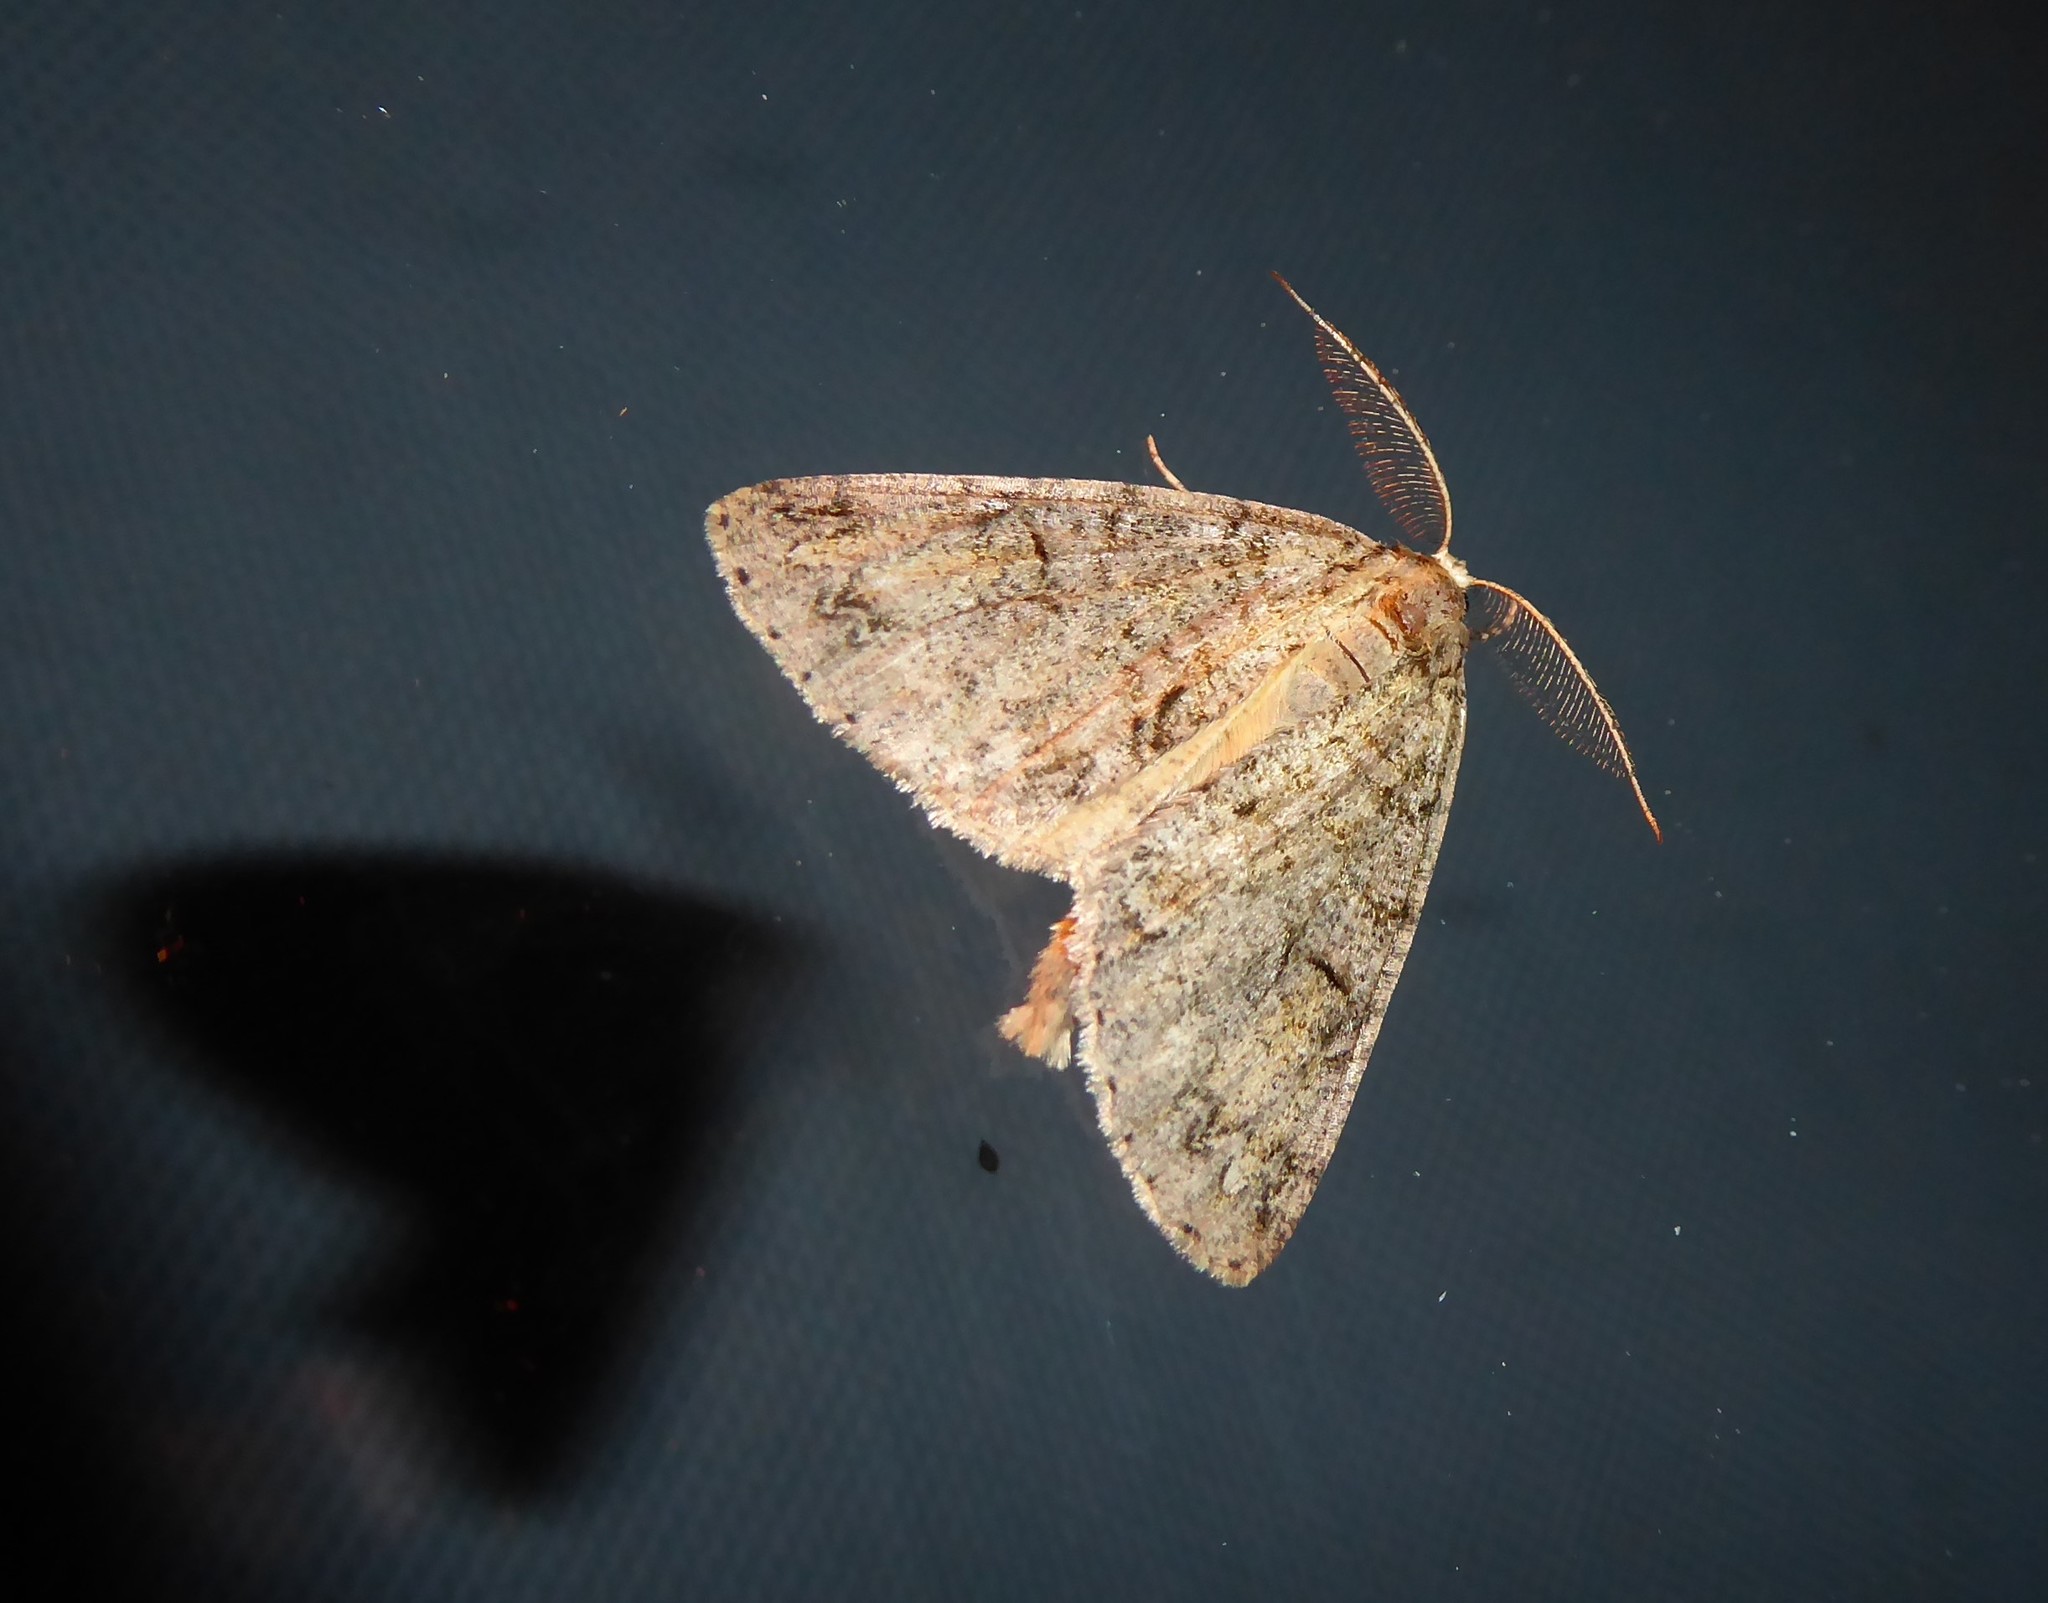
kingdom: Animalia
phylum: Arthropoda
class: Insecta
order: Lepidoptera
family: Geometridae
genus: Pseudocoremia
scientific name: Pseudocoremia suavis
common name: Common forest looper
